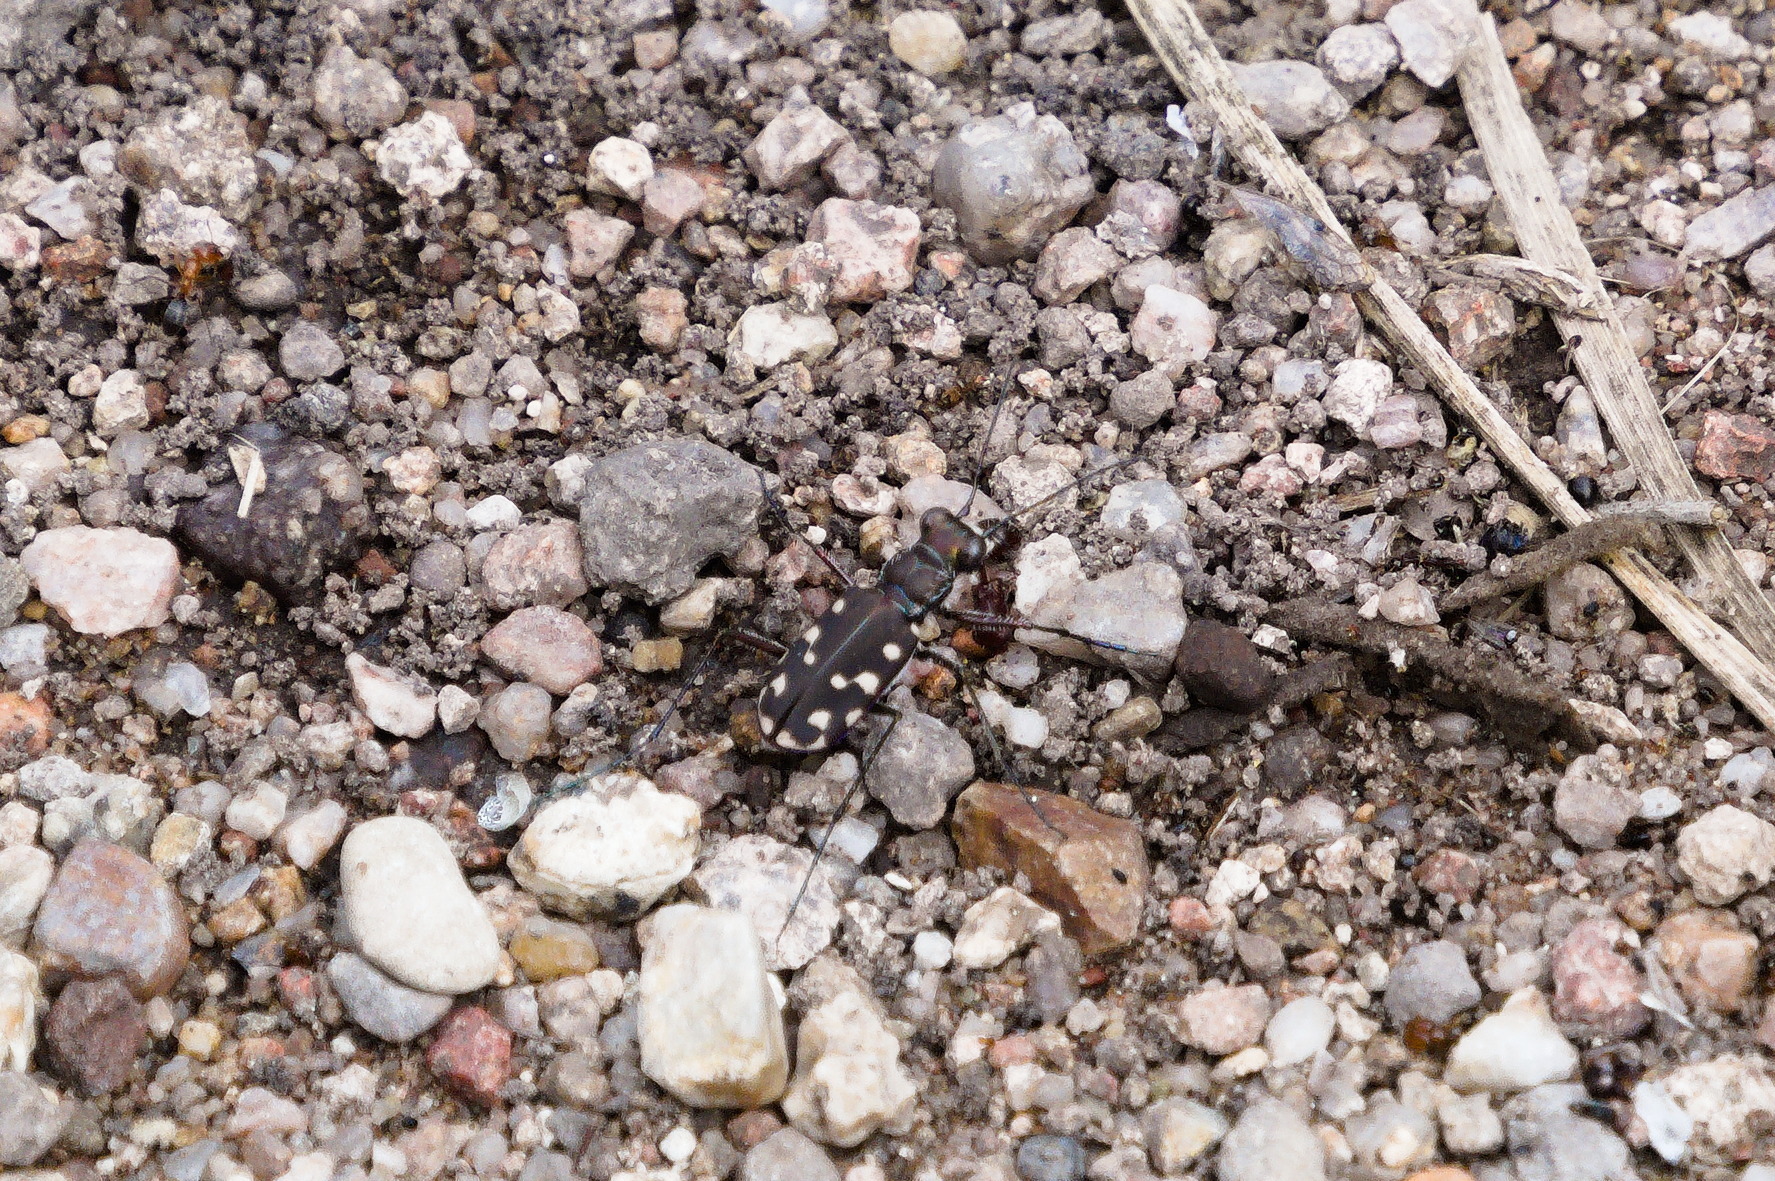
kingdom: Animalia
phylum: Arthropoda
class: Insecta
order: Coleoptera
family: Carabidae
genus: Cicindela
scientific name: Cicindela sedecimpunctata
